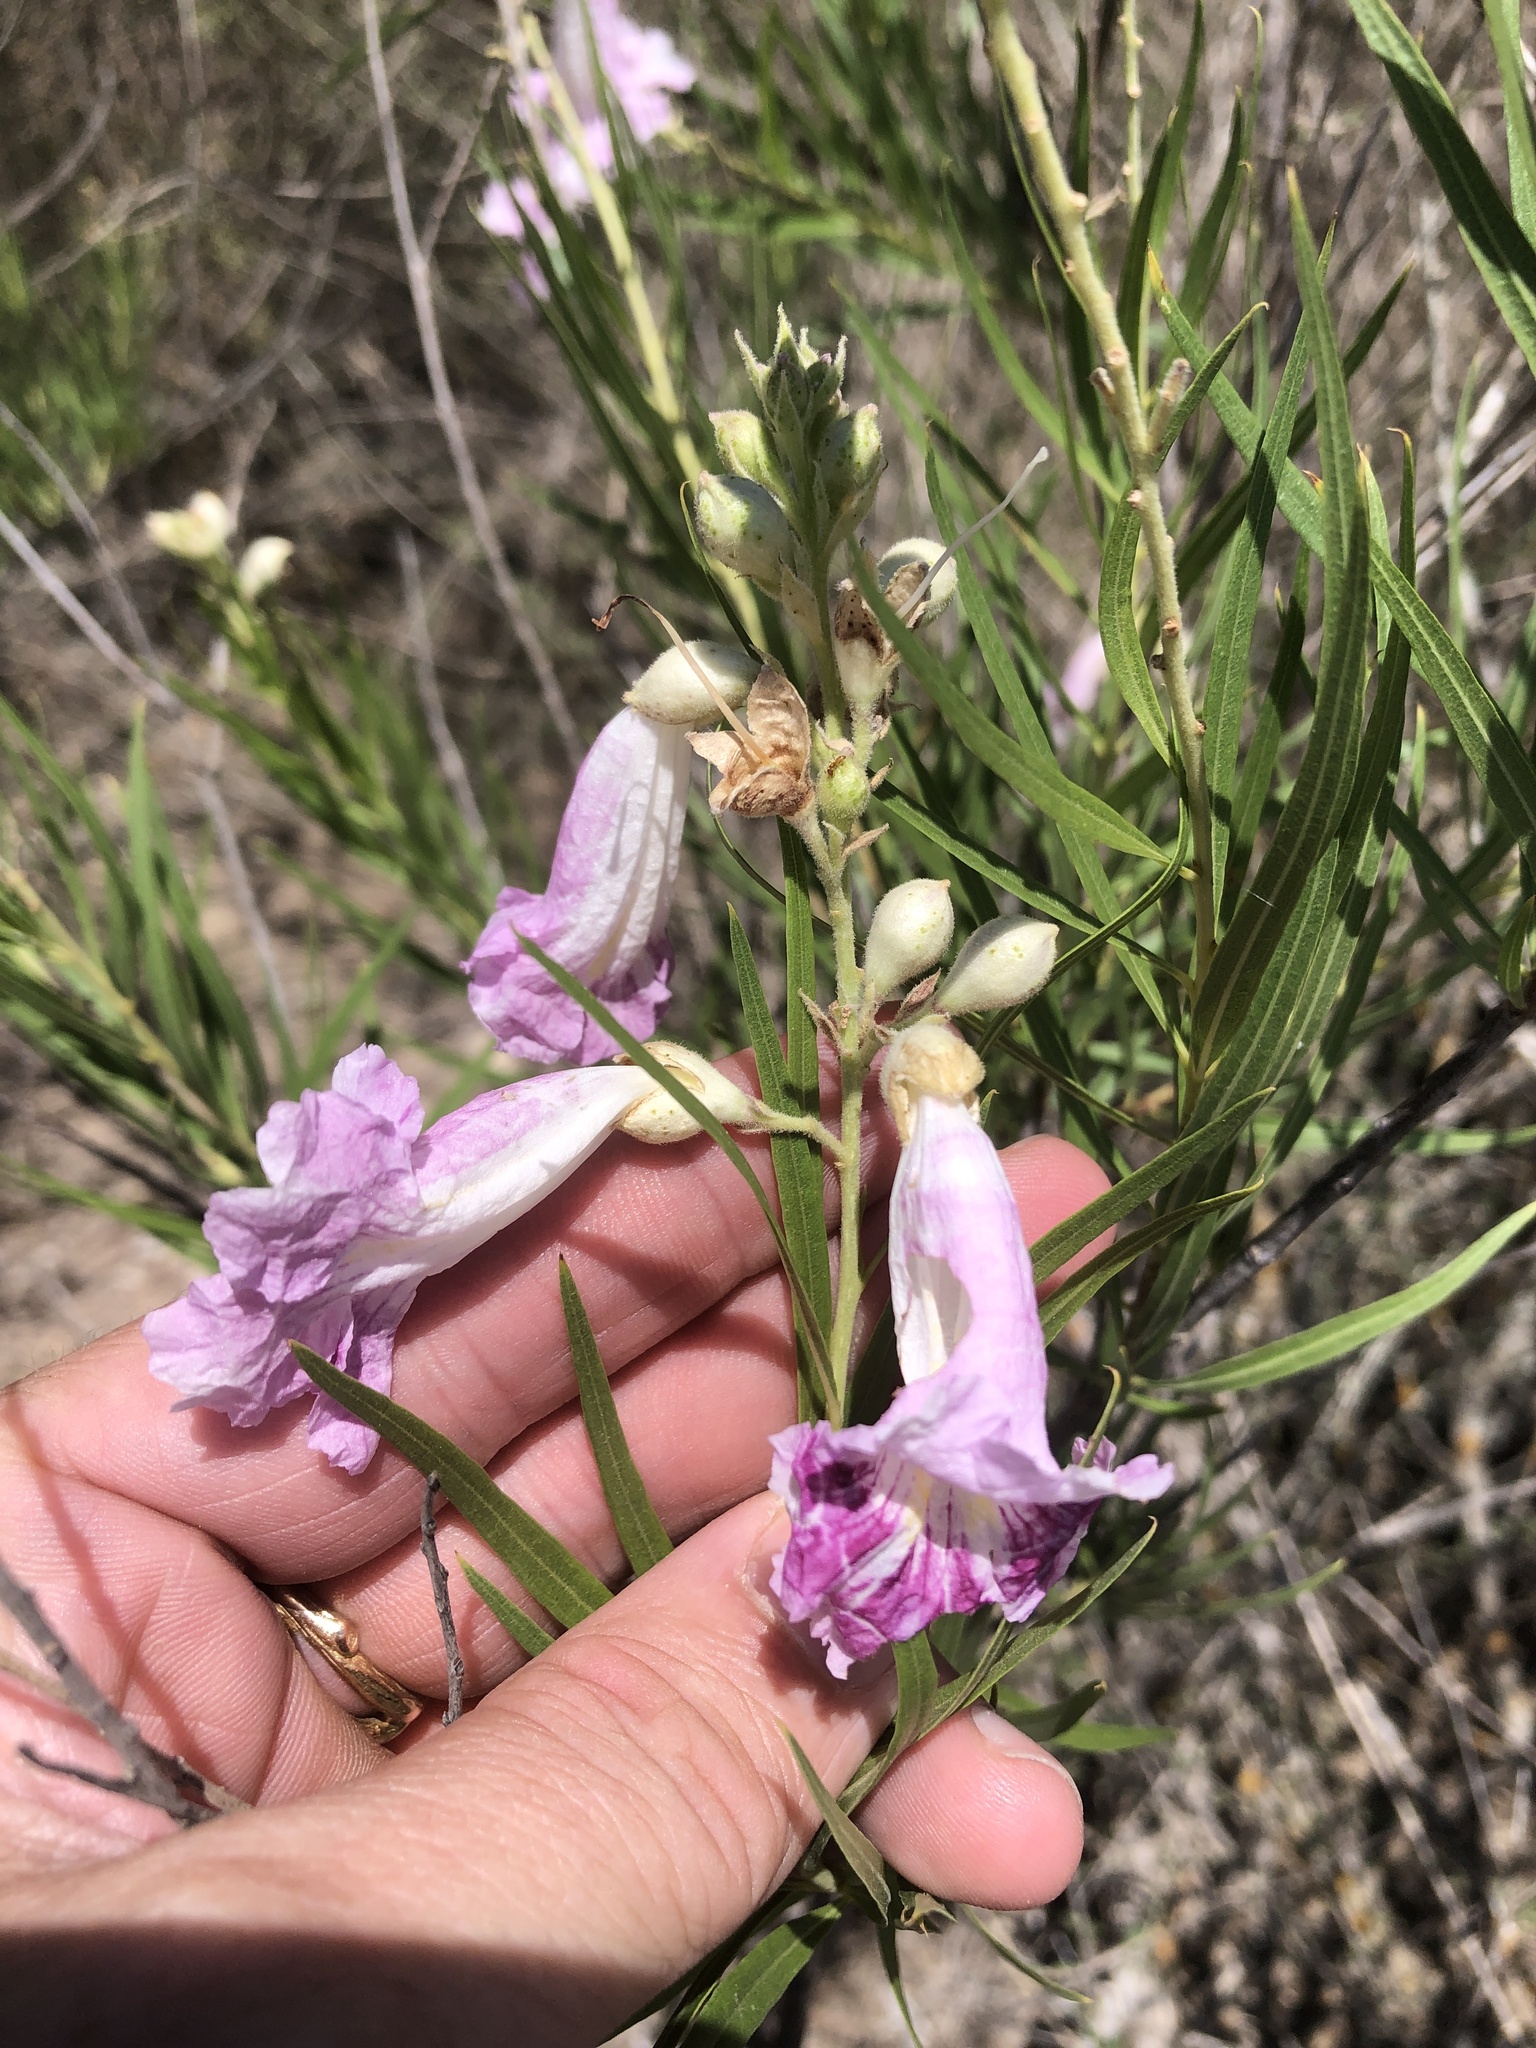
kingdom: Plantae
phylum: Tracheophyta
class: Magnoliopsida
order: Lamiales
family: Bignoniaceae
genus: Chilopsis
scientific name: Chilopsis linearis
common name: Desert-willow
